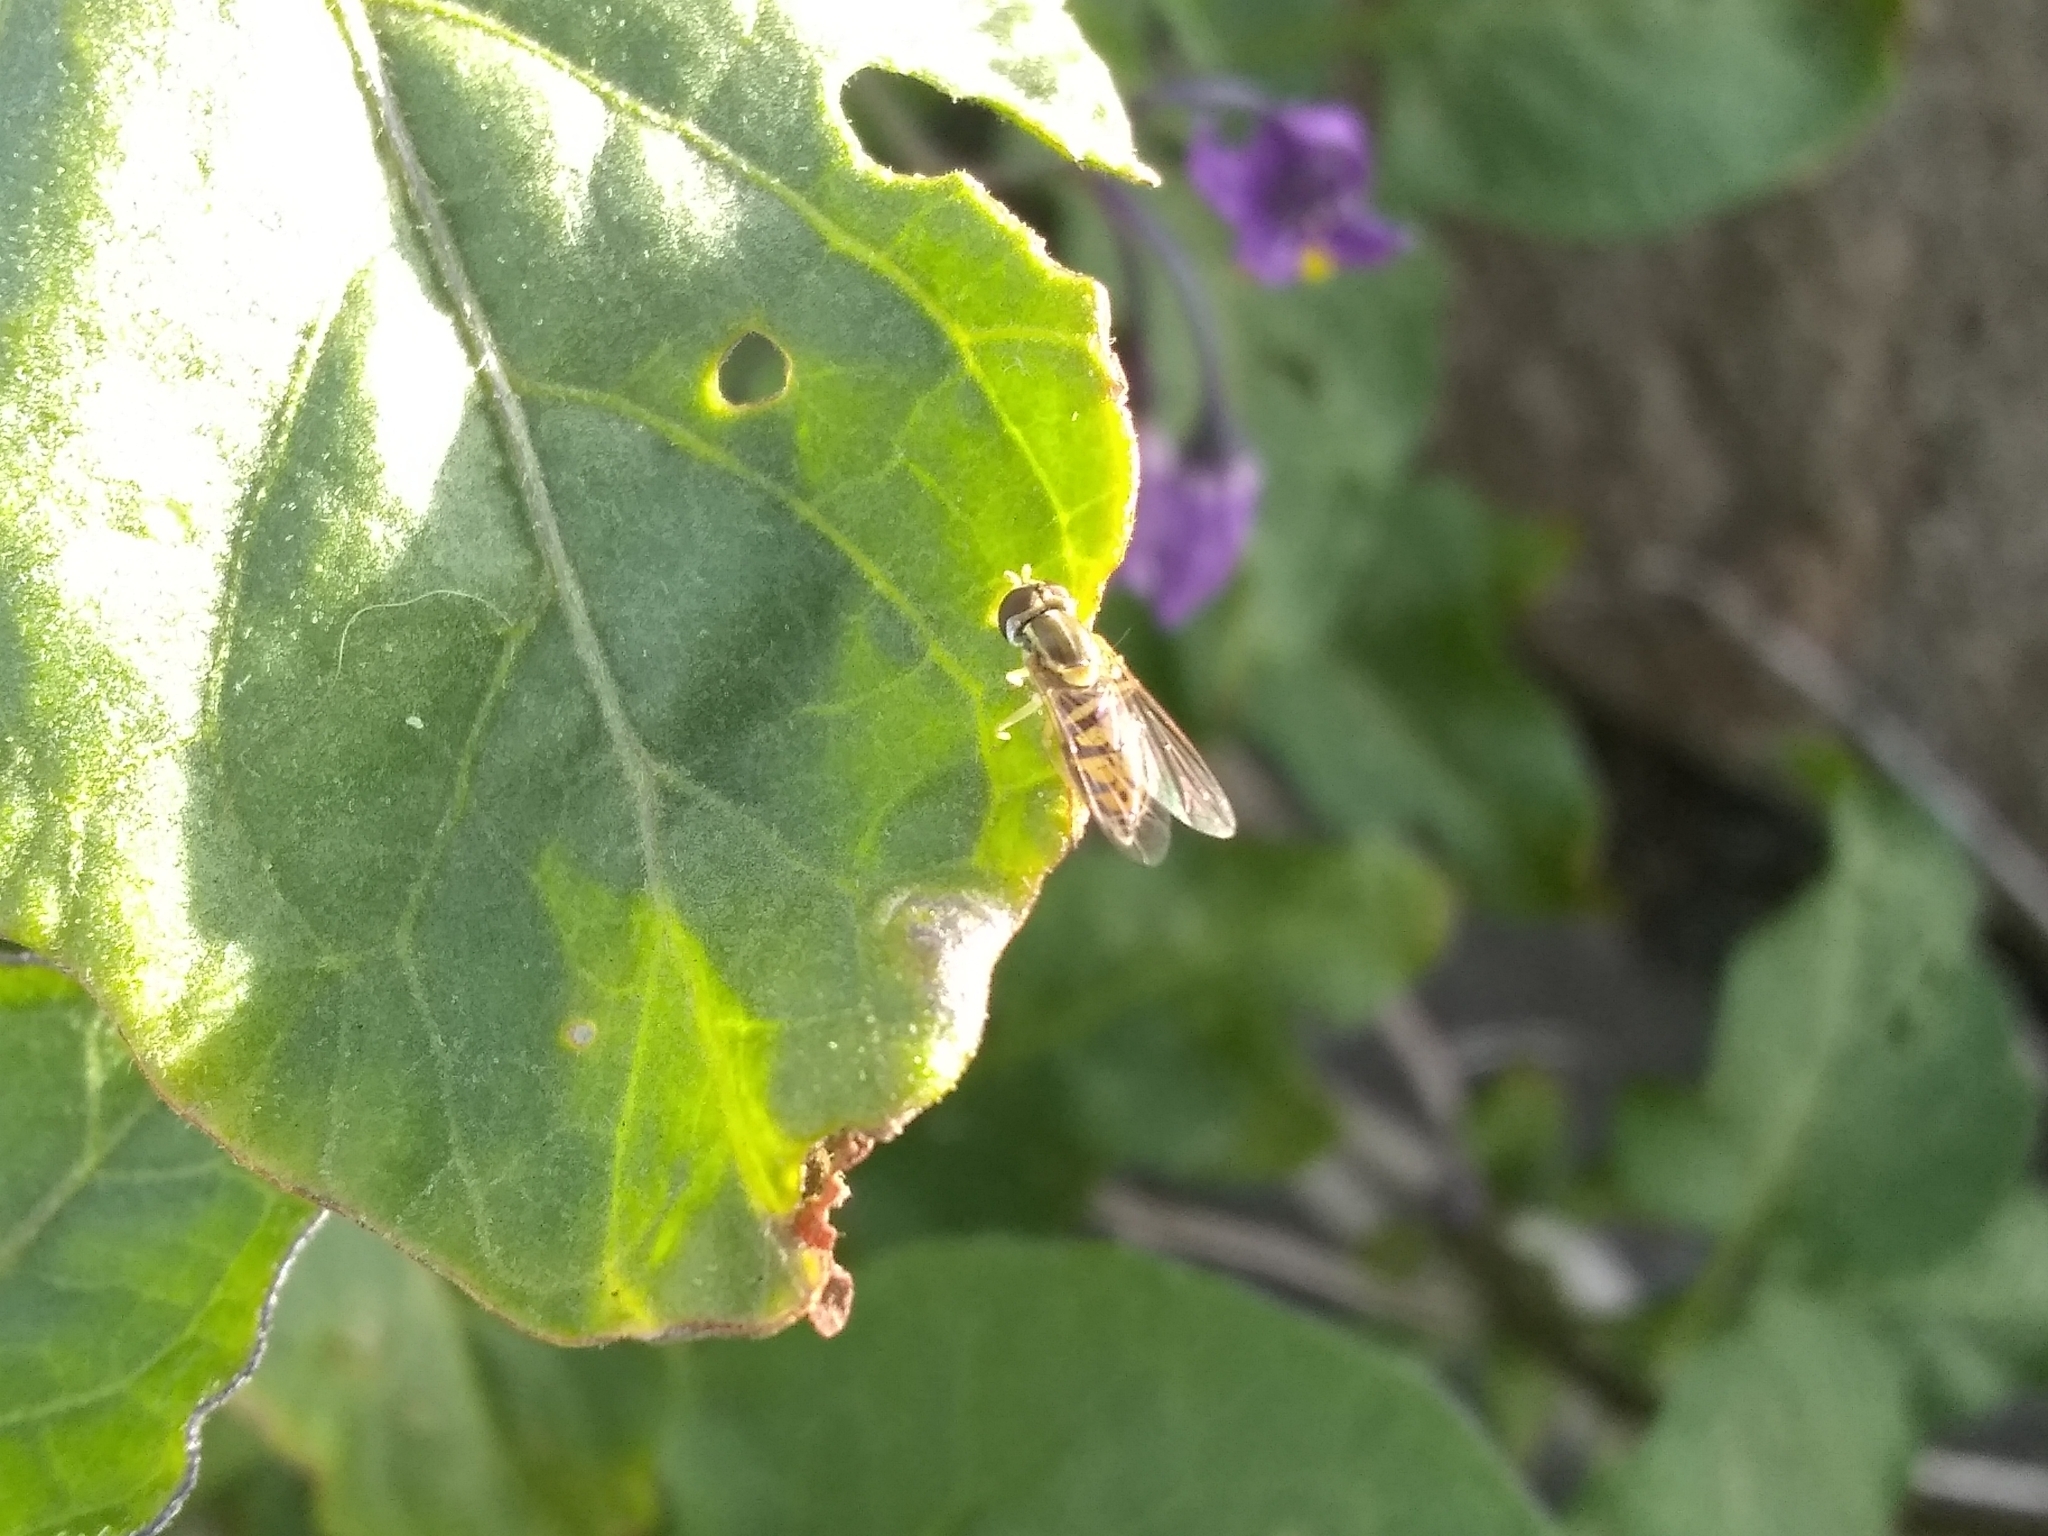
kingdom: Animalia
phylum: Arthropoda
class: Insecta
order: Diptera
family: Syrphidae
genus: Toxomerus
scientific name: Toxomerus marginatus
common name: Syrphid fly
